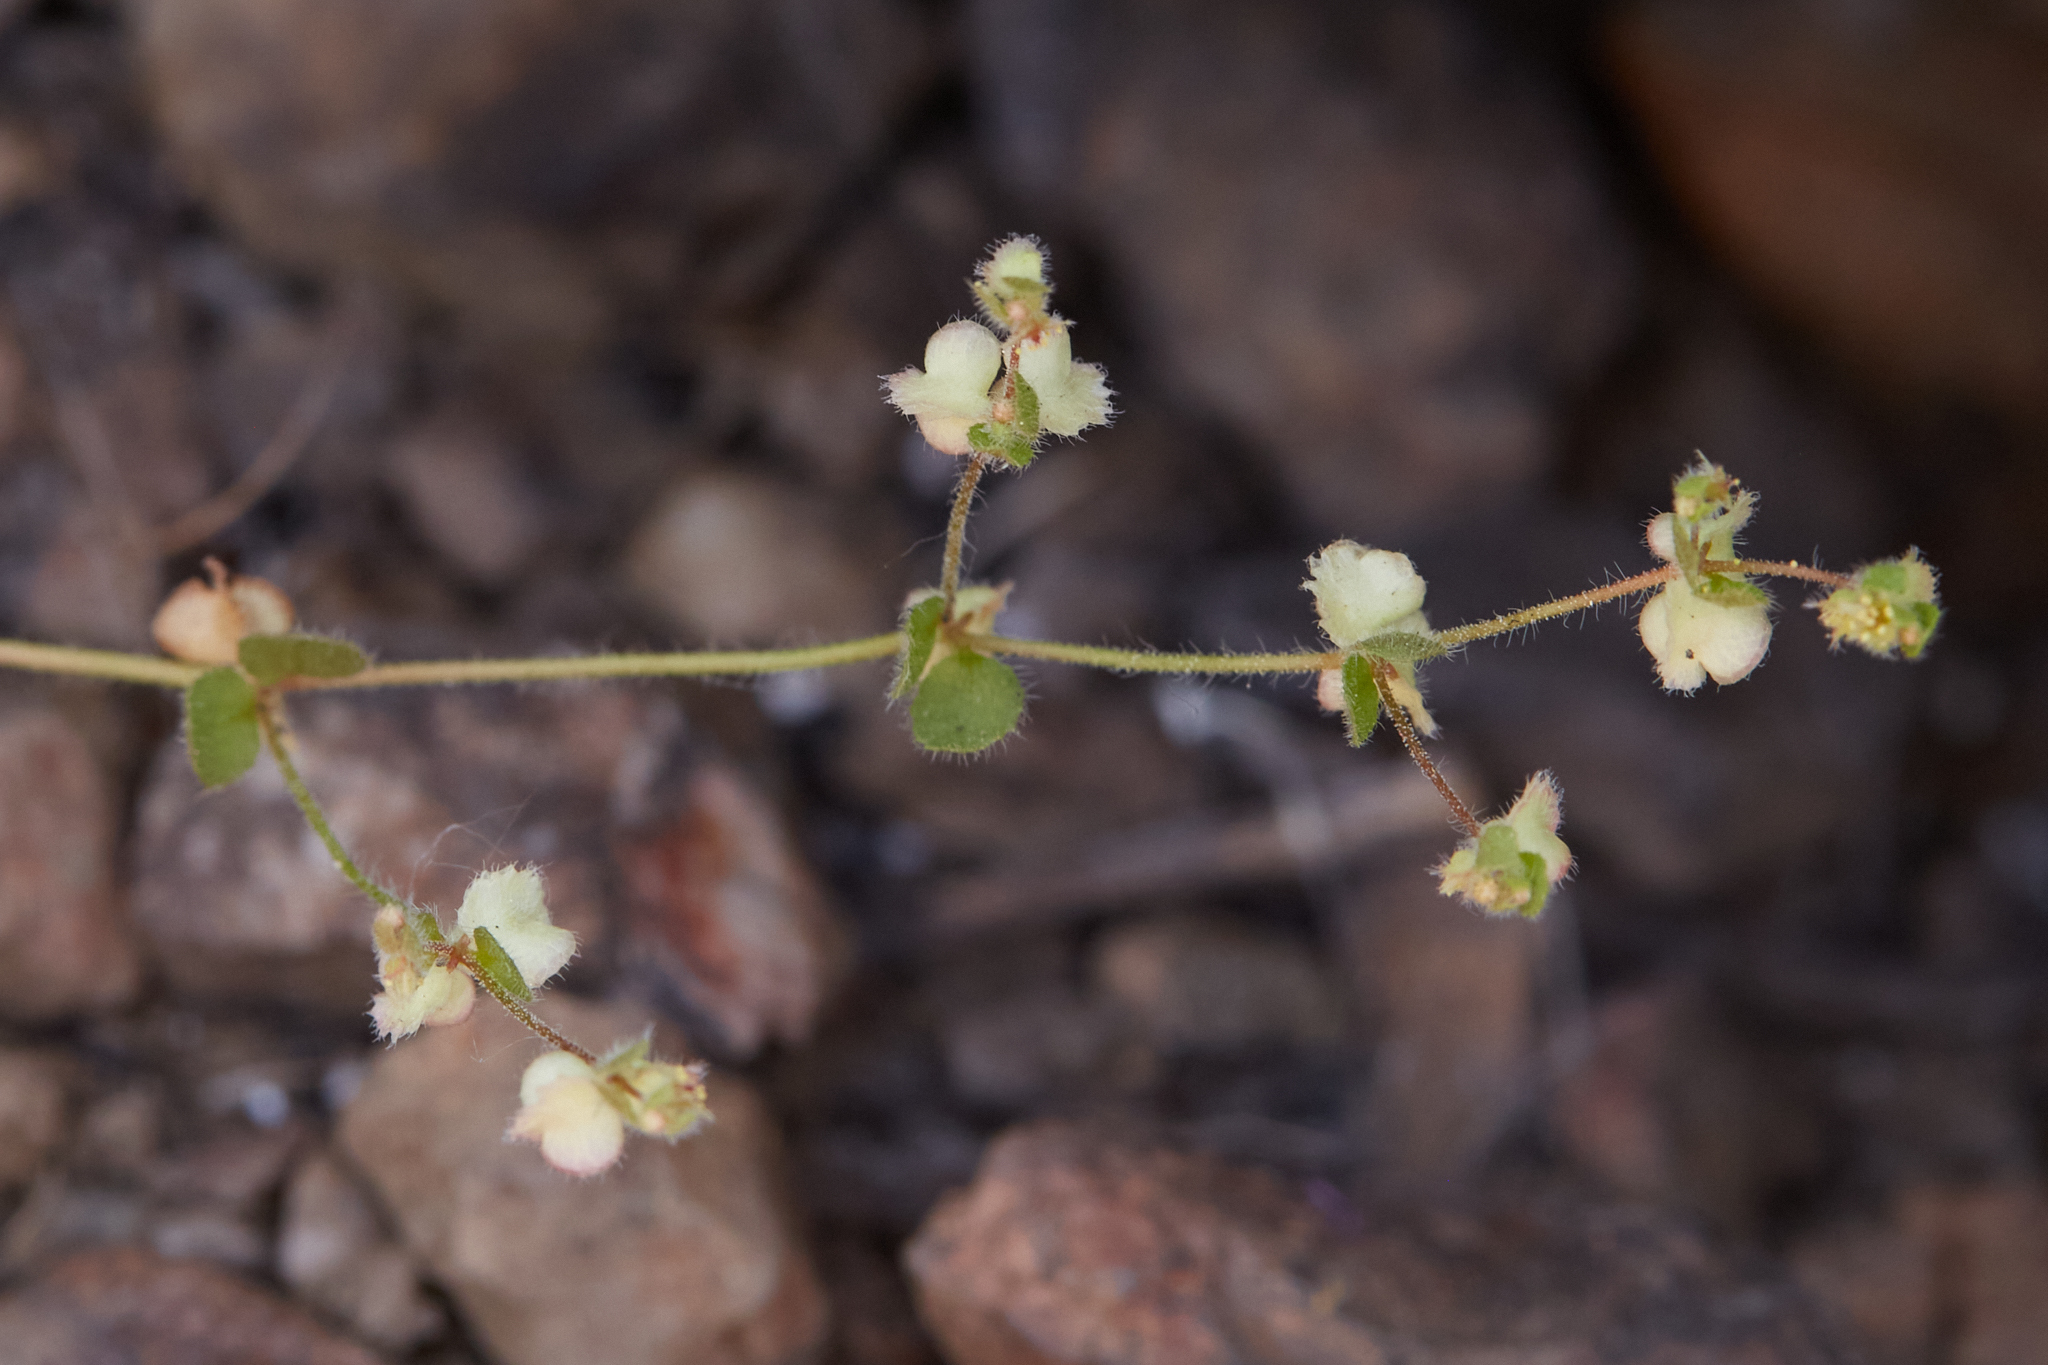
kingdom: Plantae
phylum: Tracheophyta
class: Magnoliopsida
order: Caryophyllales
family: Polygonaceae
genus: Pterostegia
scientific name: Pterostegia drymarioides
